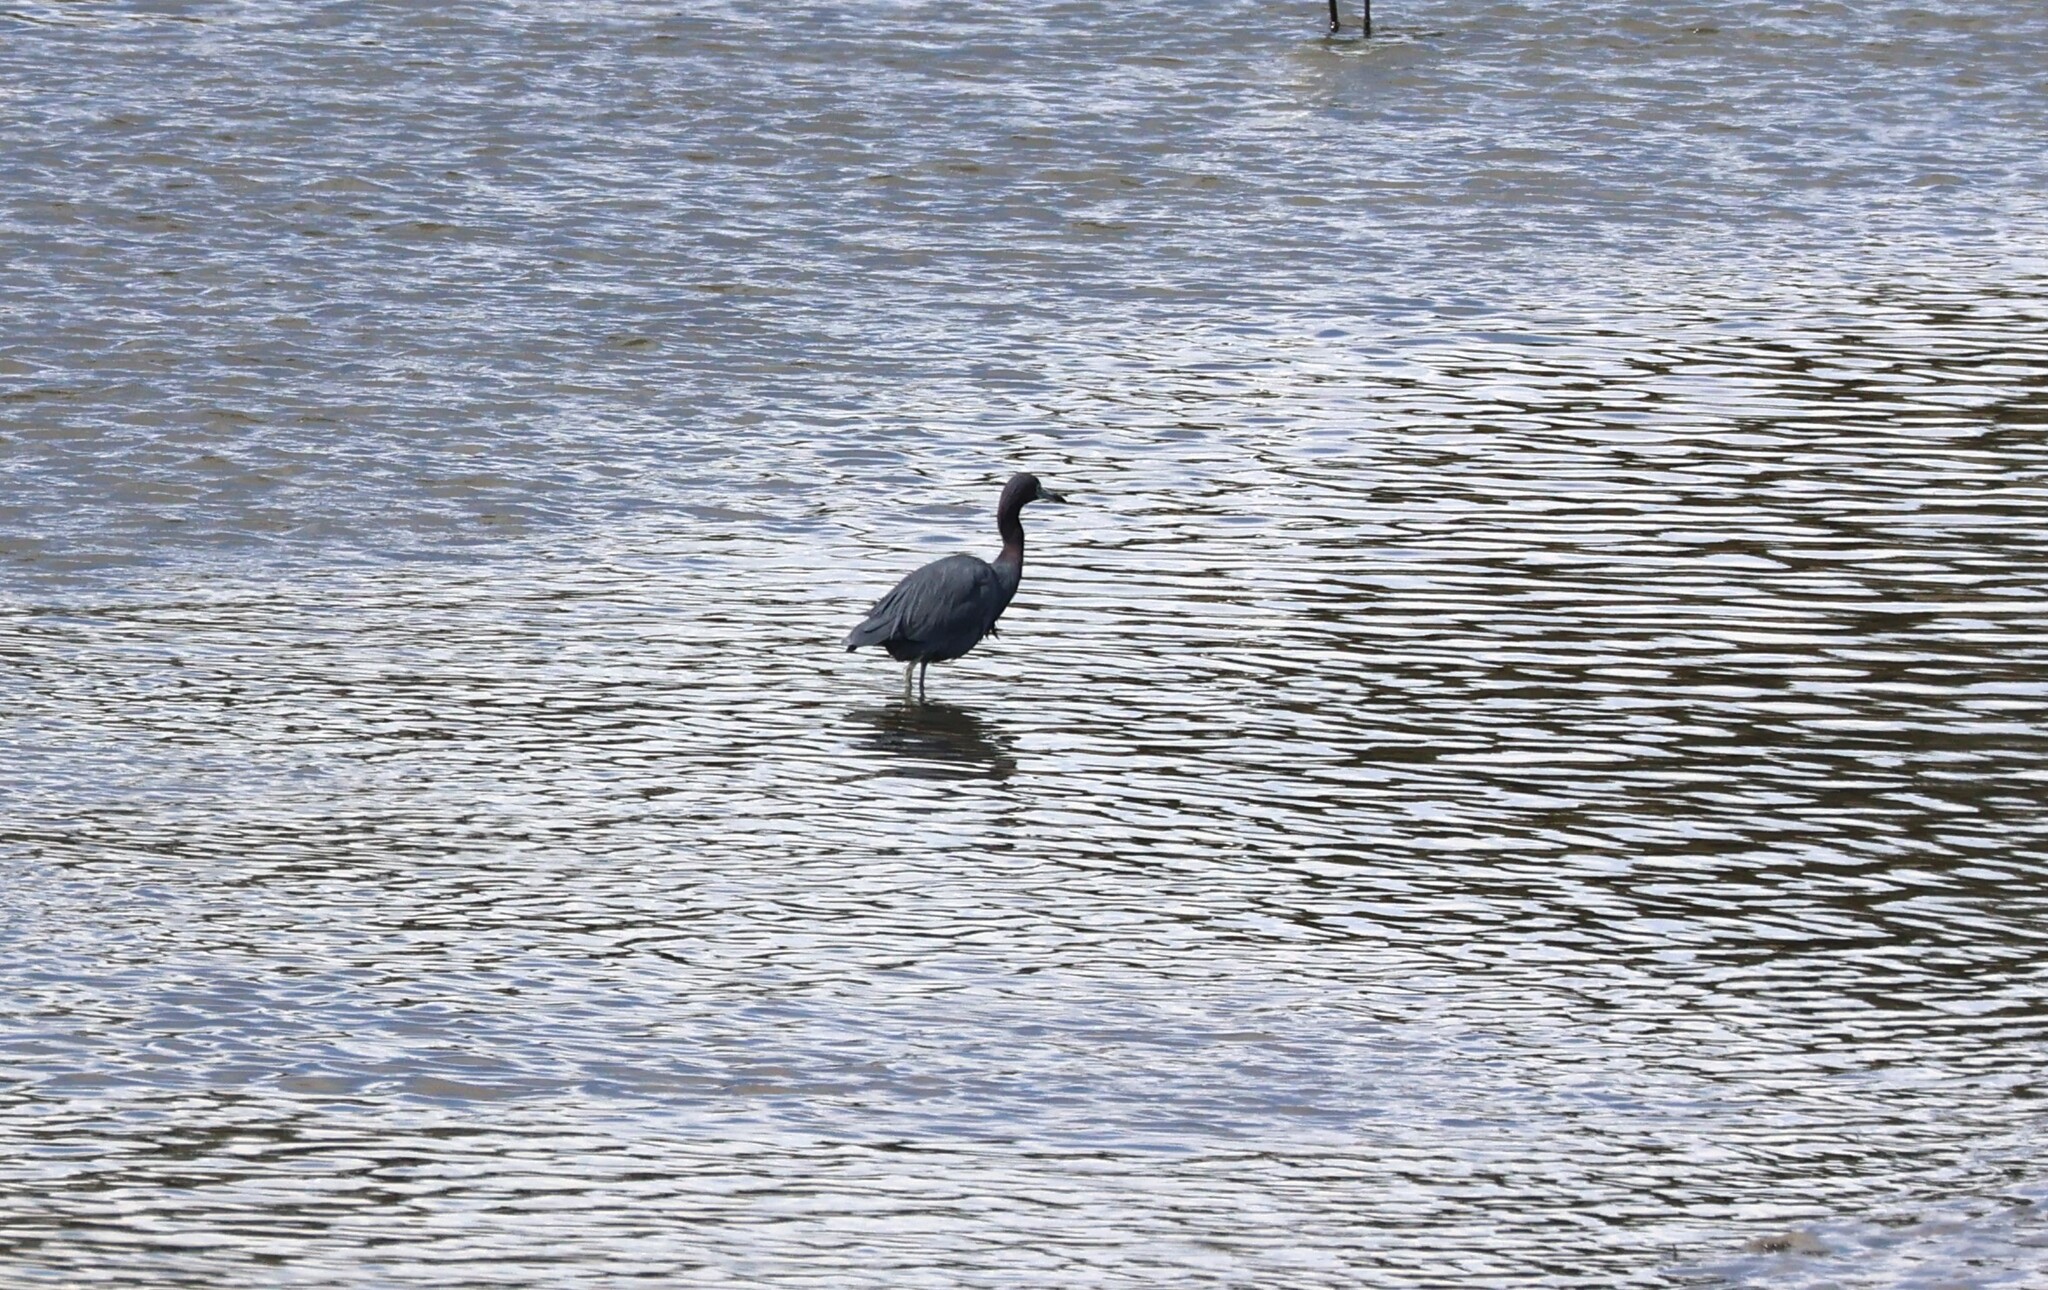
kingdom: Animalia
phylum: Chordata
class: Aves
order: Pelecaniformes
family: Ardeidae
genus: Egretta
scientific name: Egretta caerulea
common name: Little blue heron
